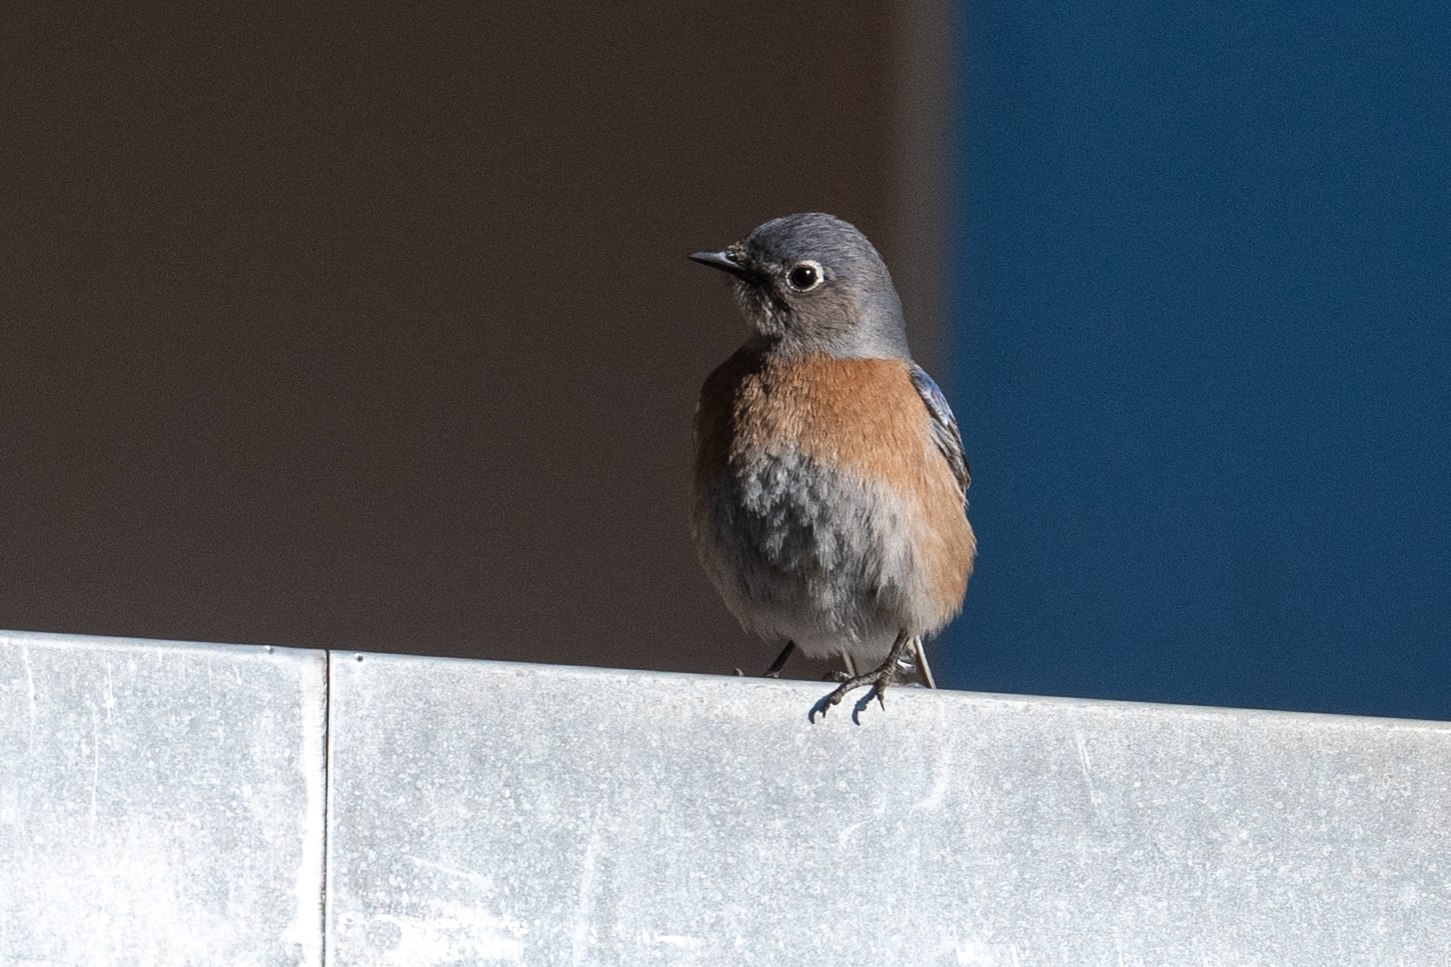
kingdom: Animalia
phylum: Chordata
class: Aves
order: Passeriformes
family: Turdidae
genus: Sialia
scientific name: Sialia mexicana
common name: Western bluebird
